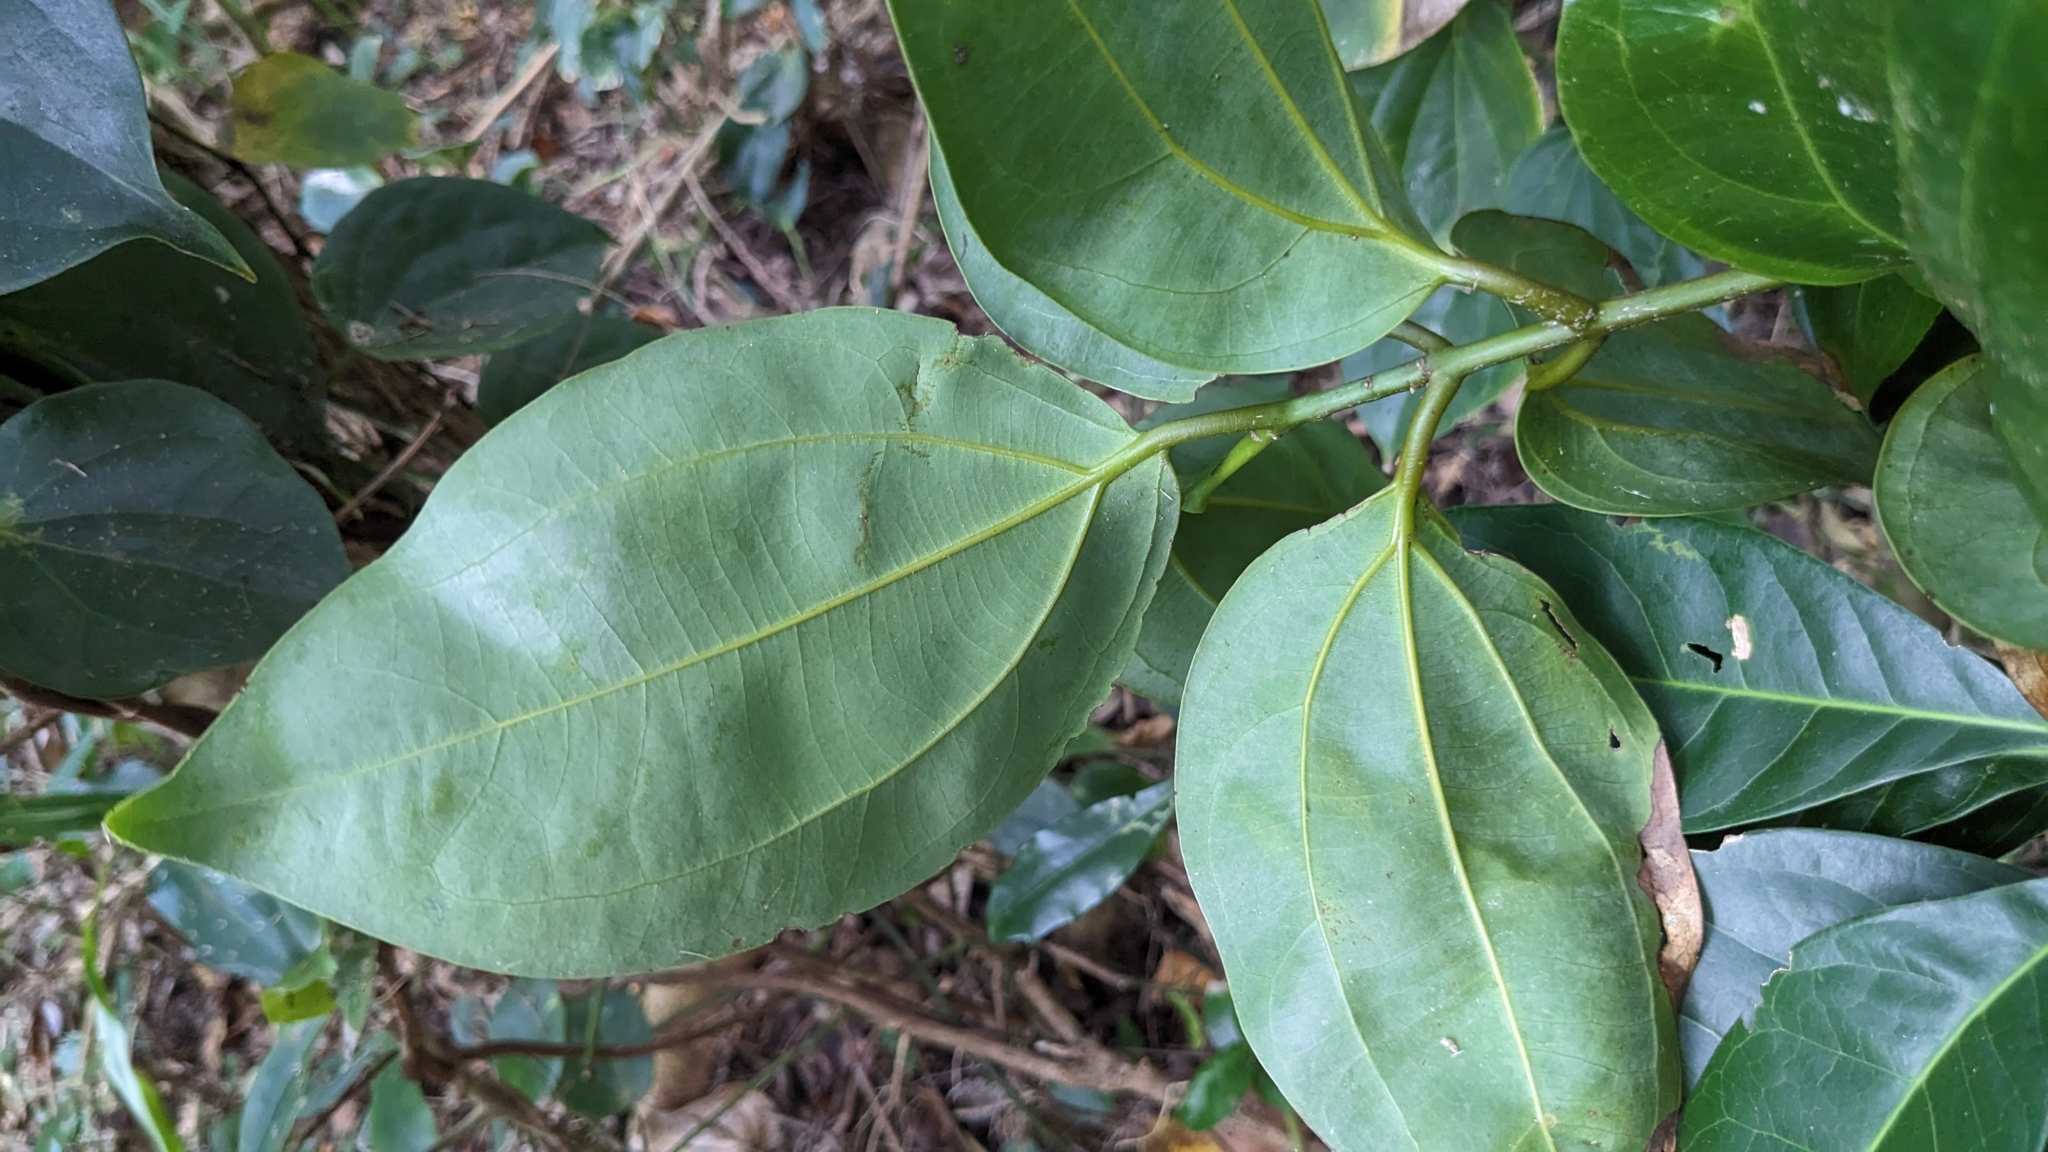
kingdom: Plantae
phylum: Tracheophyta
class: Magnoliopsida
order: Laurales
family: Lauraceae
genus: Cinnamomum
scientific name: Cinnamomum kotoense
